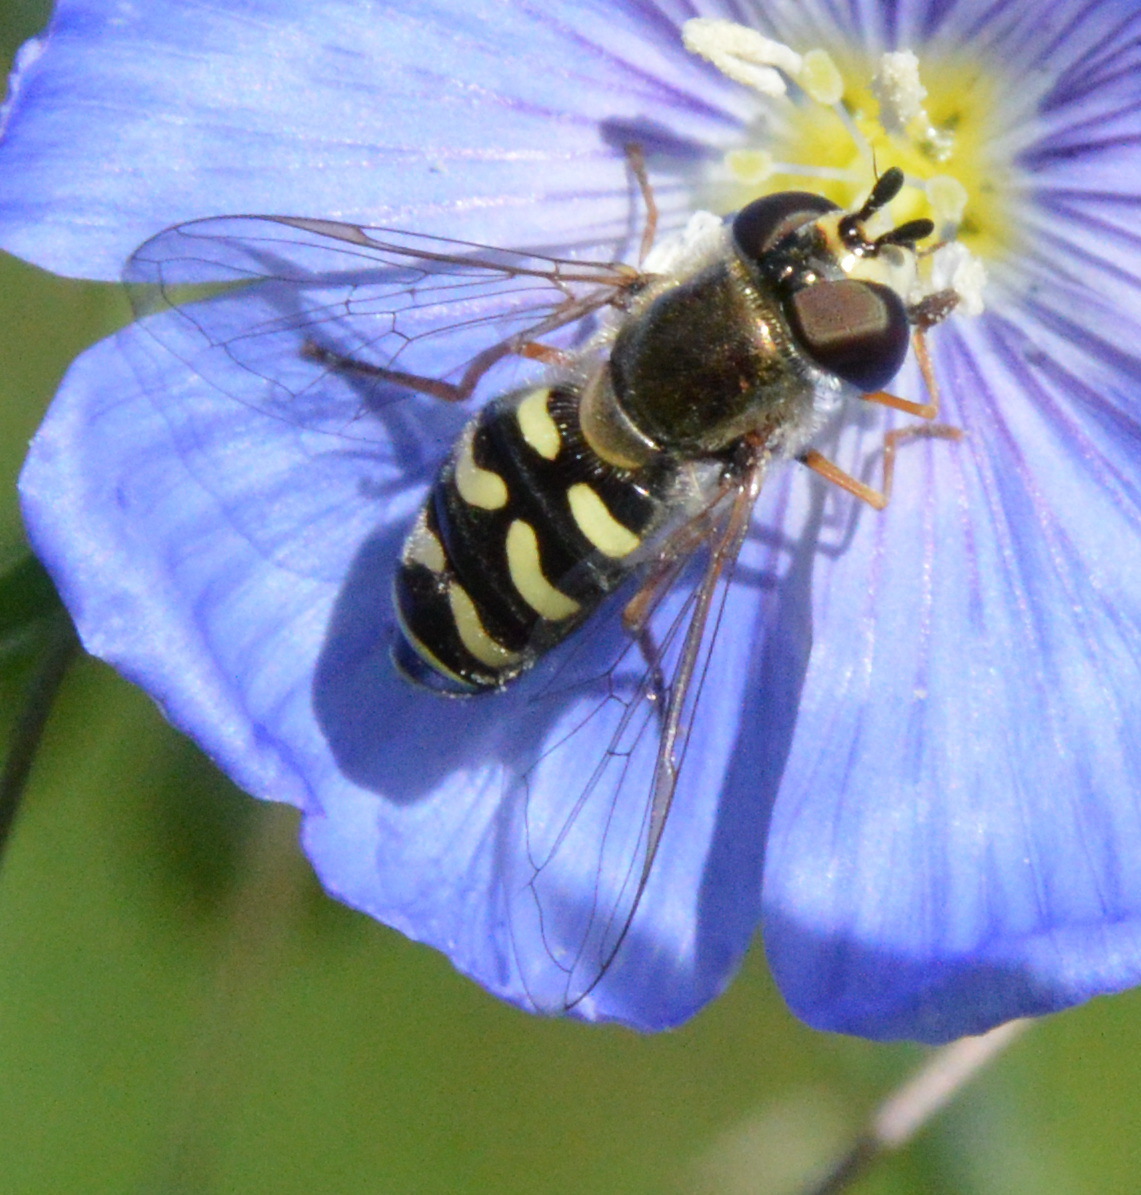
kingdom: Animalia
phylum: Arthropoda
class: Insecta
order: Diptera
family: Syrphidae
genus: Eupeodes
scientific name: Eupeodes volucris
